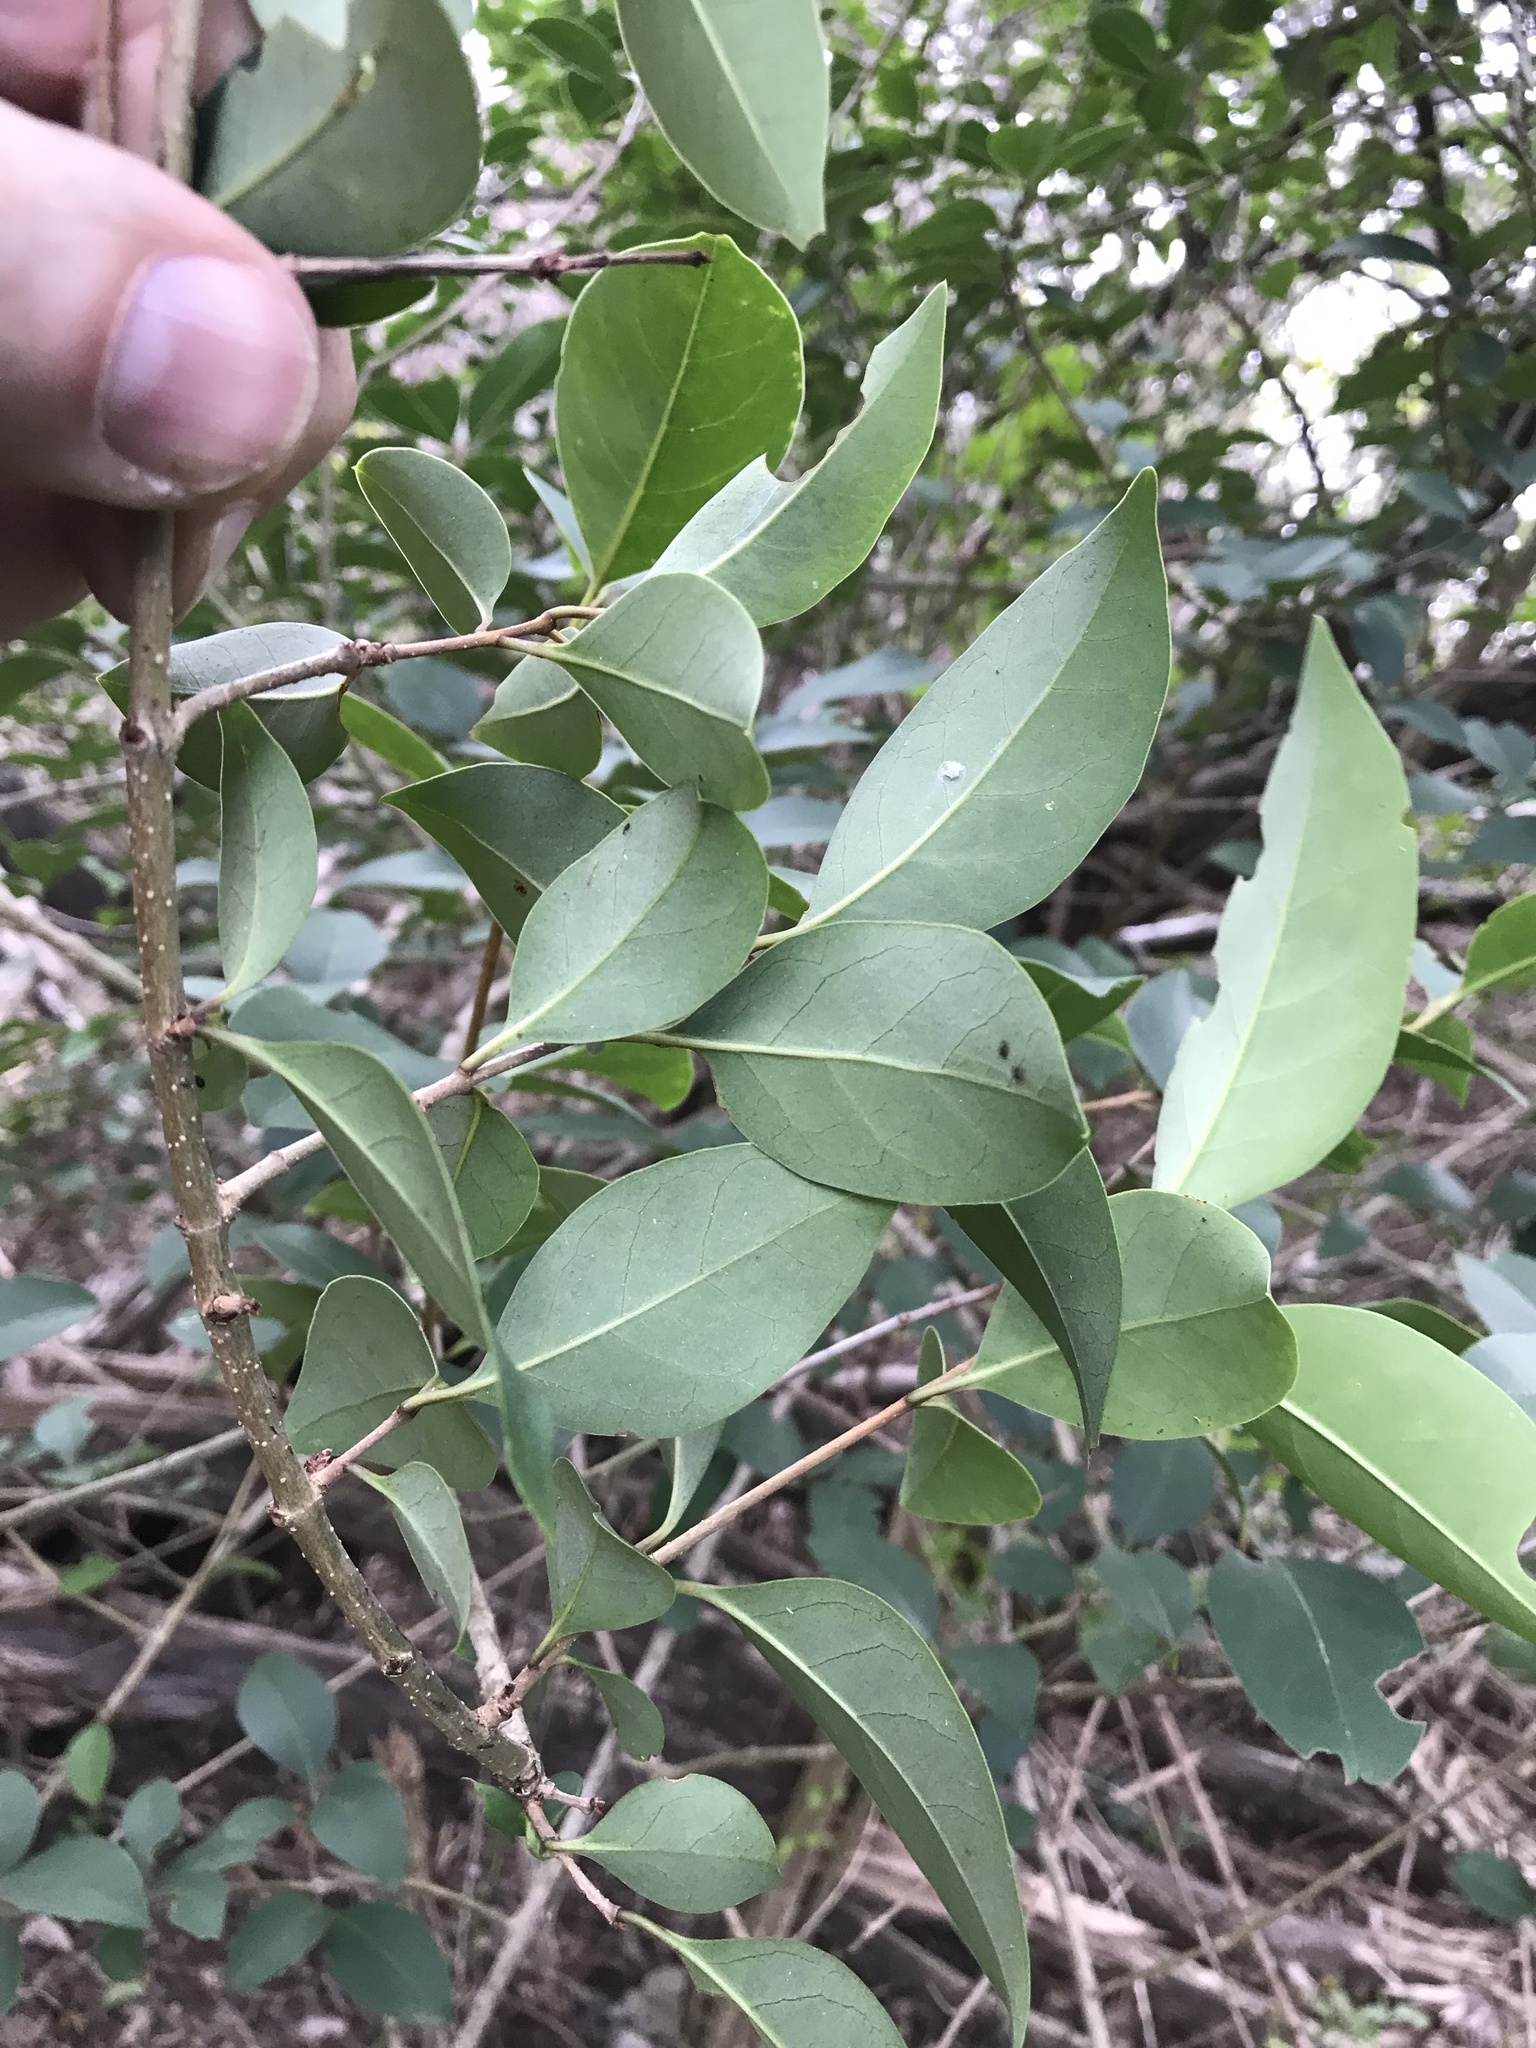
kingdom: Plantae
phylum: Tracheophyta
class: Magnoliopsida
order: Lamiales
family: Oleaceae
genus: Ligustrum
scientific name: Ligustrum lucidum
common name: Glossy privet
